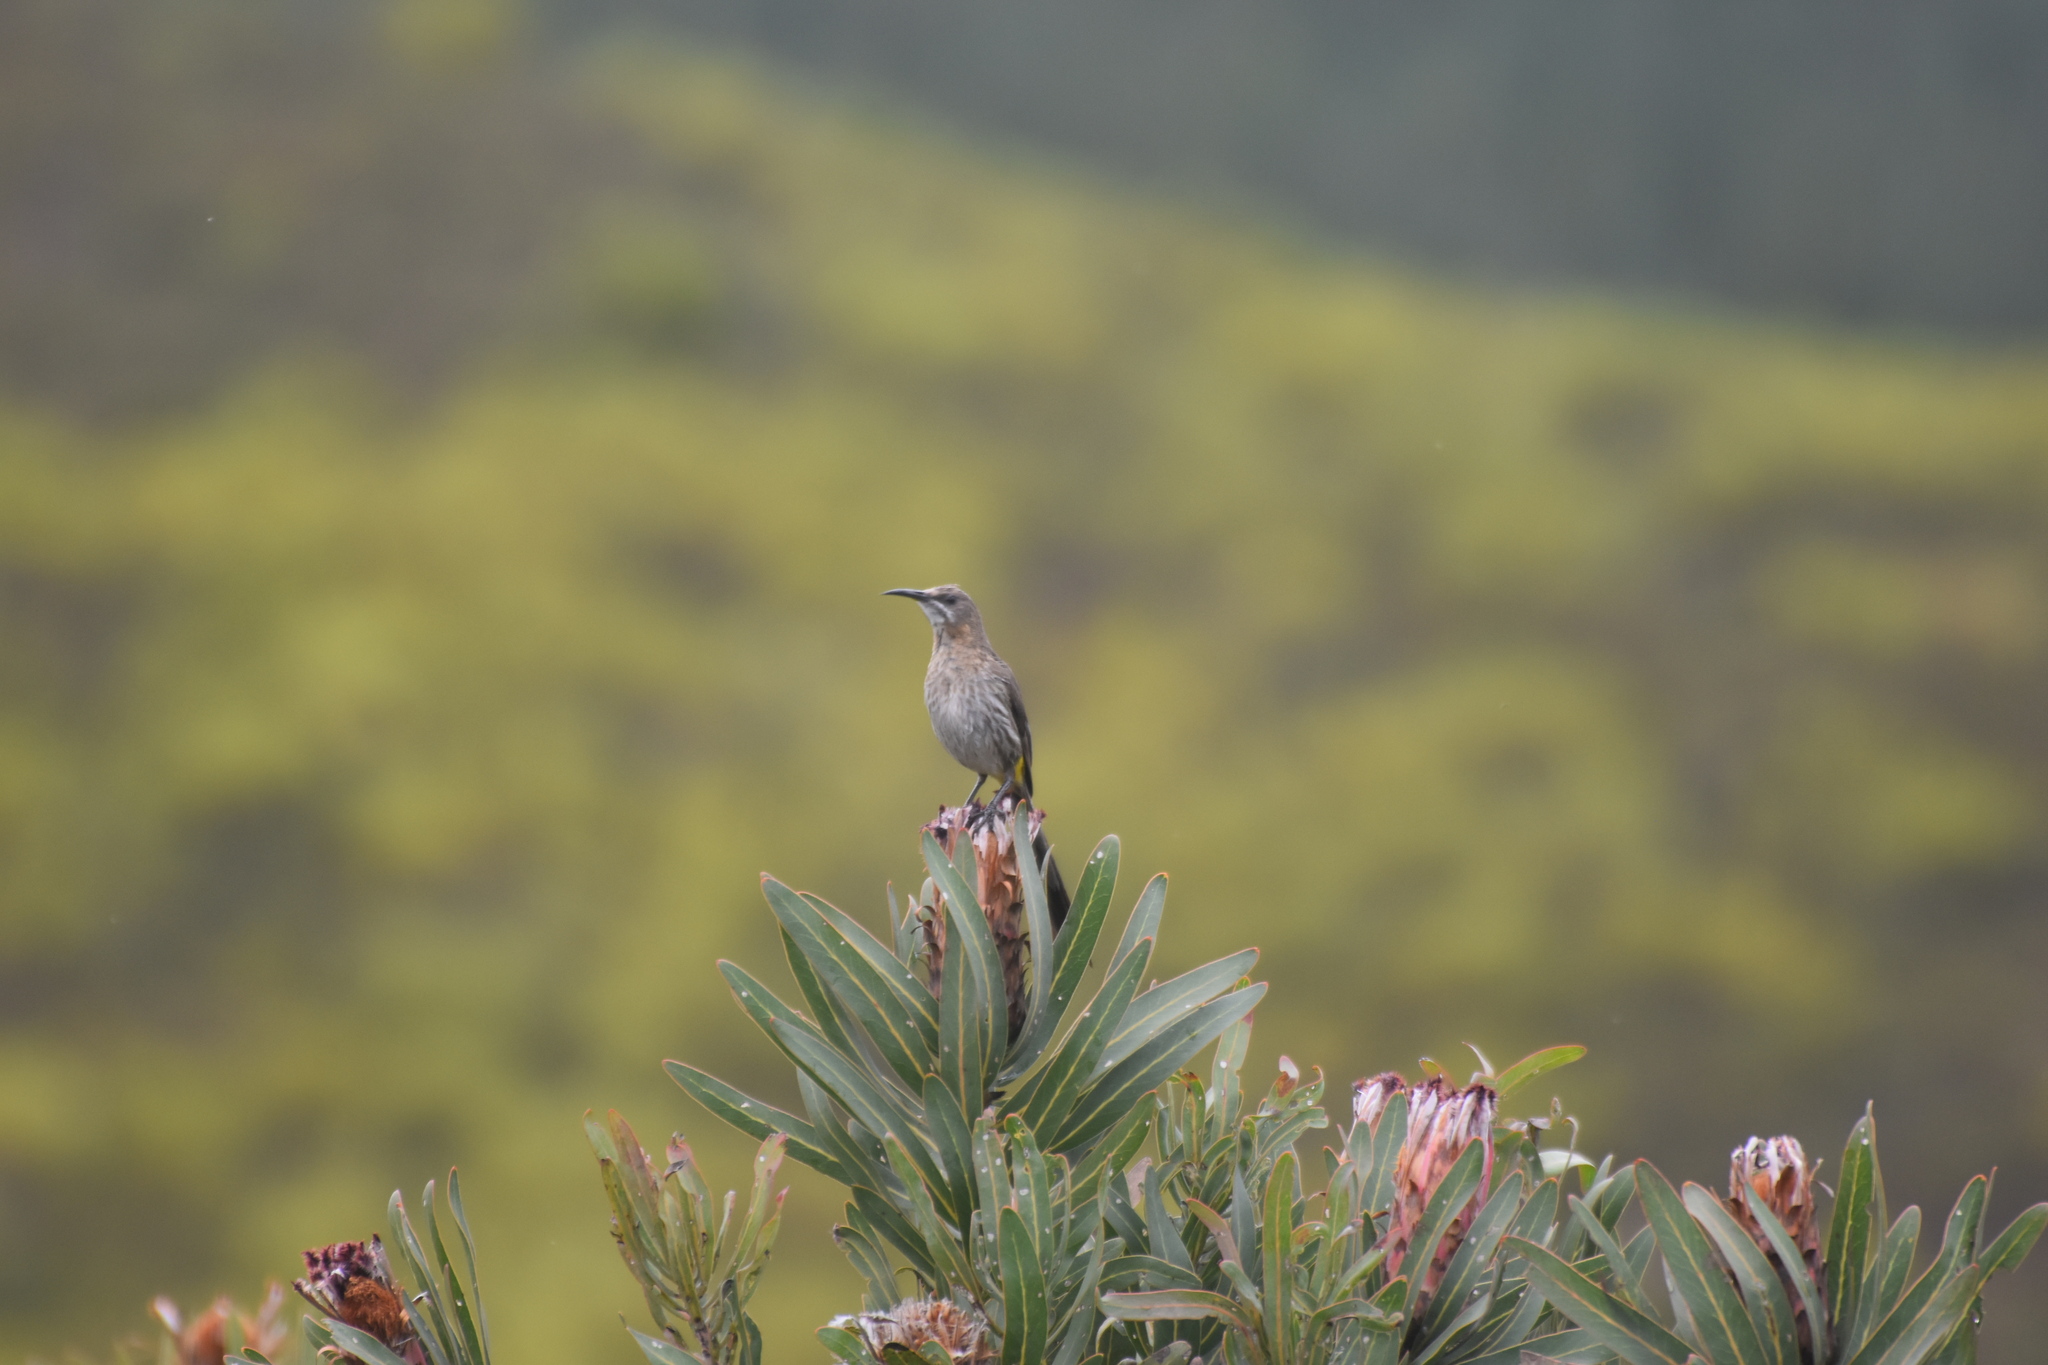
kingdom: Animalia
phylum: Chordata
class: Aves
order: Passeriformes
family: Promeropidae
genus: Promerops
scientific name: Promerops cafer
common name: Cape sugarbird
